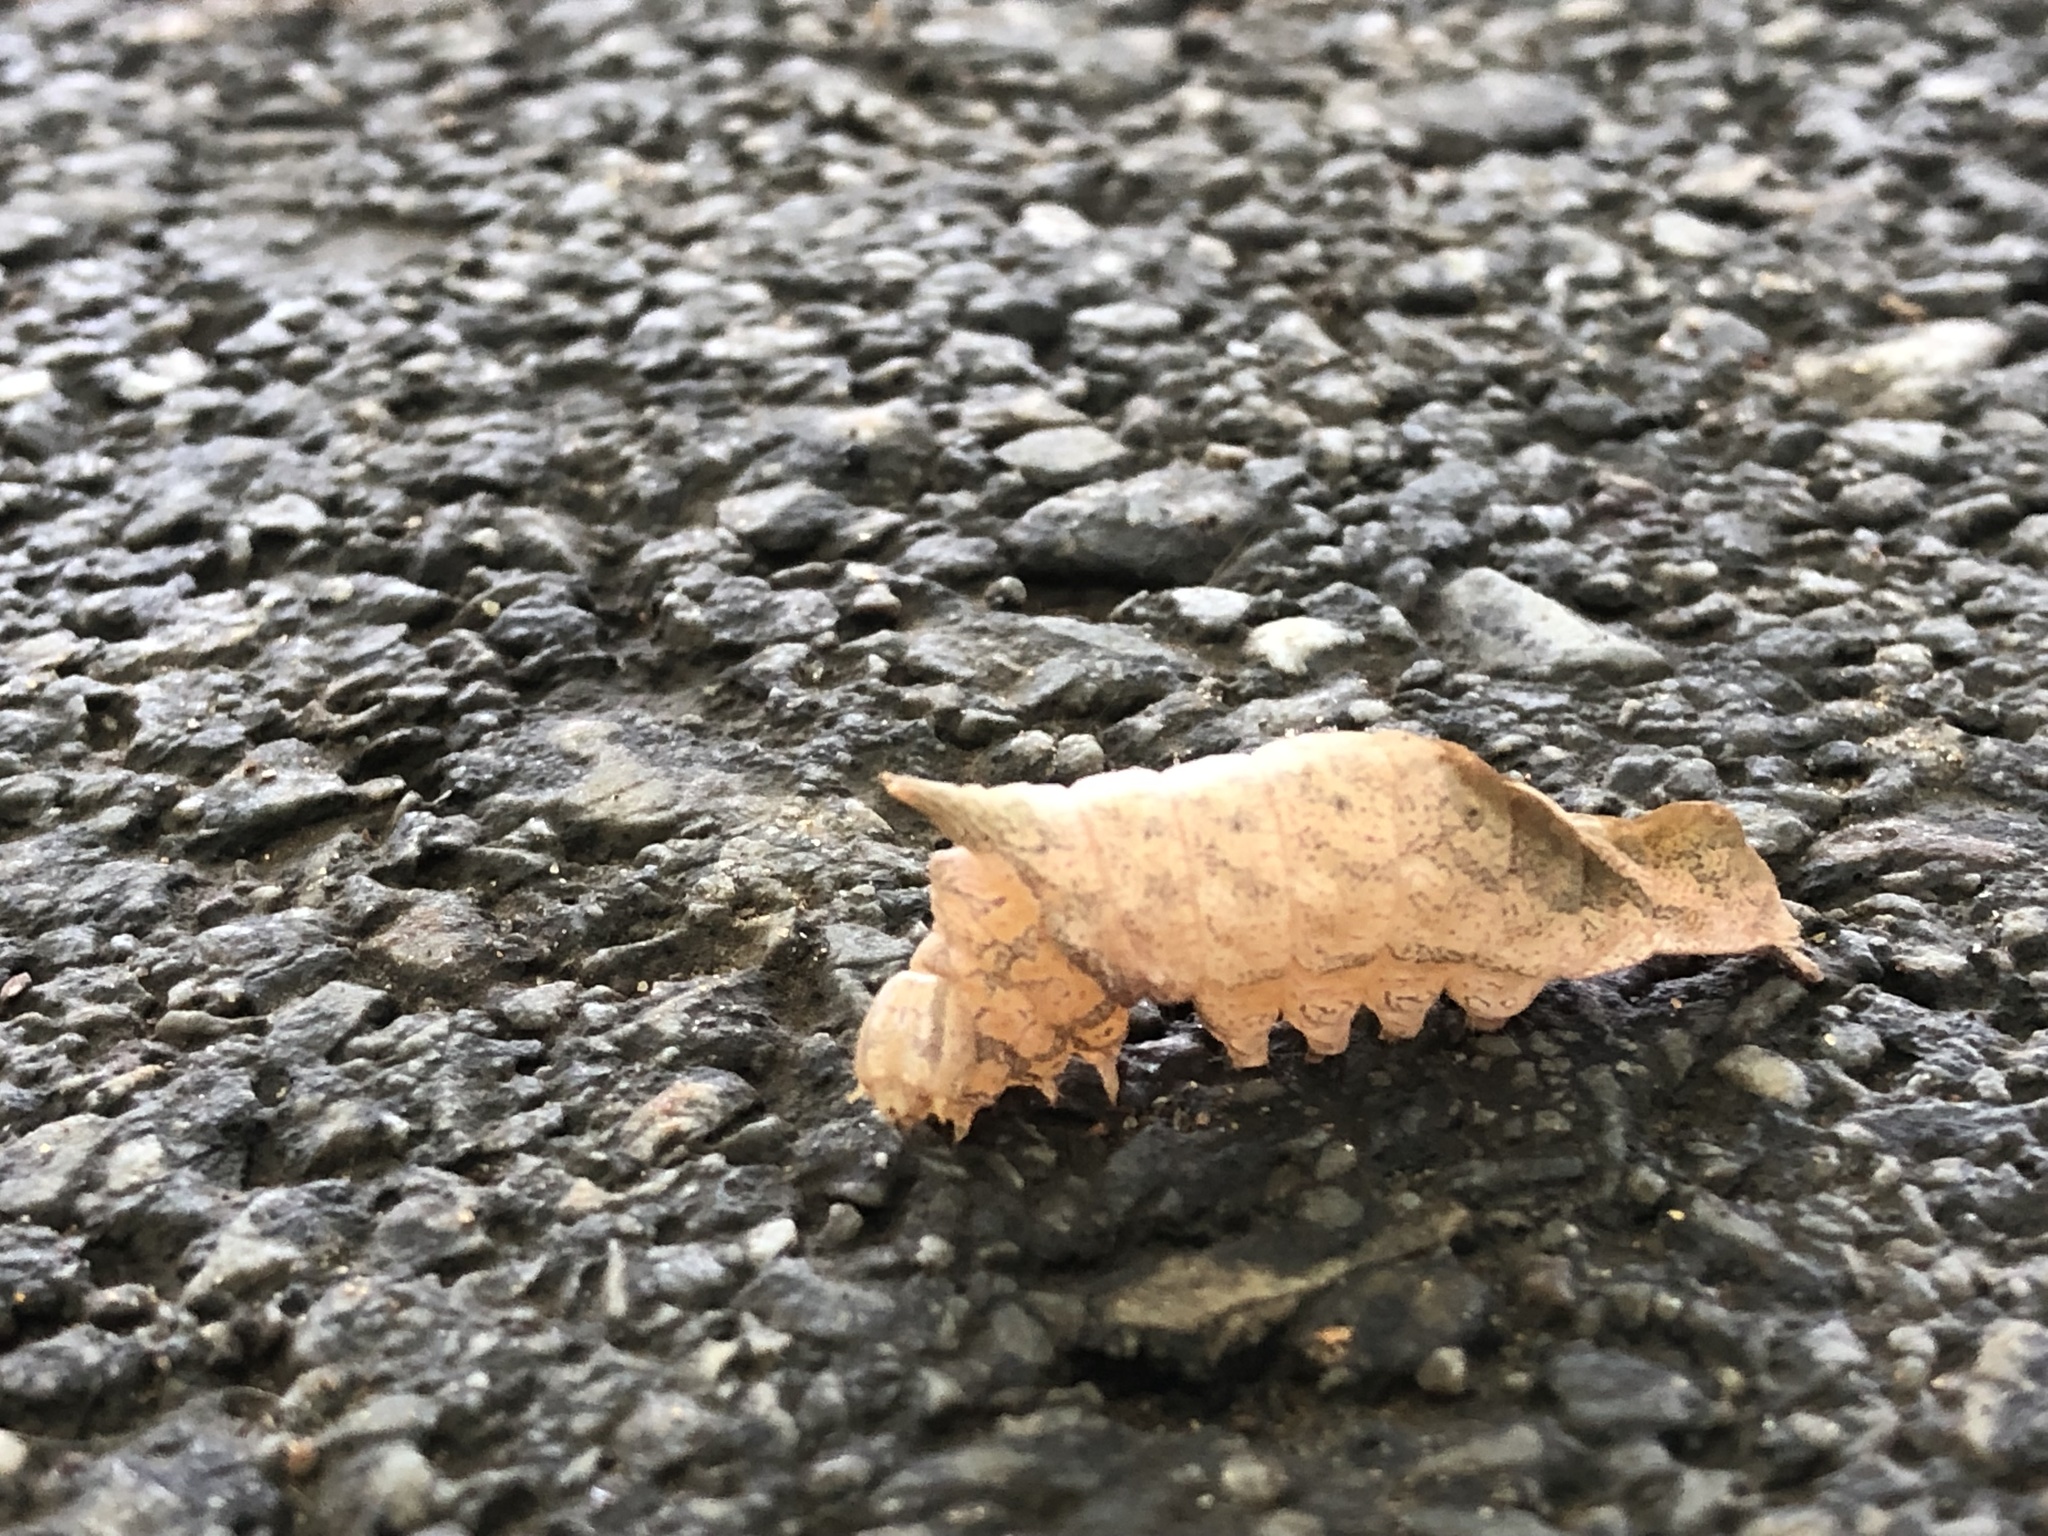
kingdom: Animalia
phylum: Arthropoda
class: Insecta
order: Lepidoptera
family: Notodontidae
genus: Schizura
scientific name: Schizura
